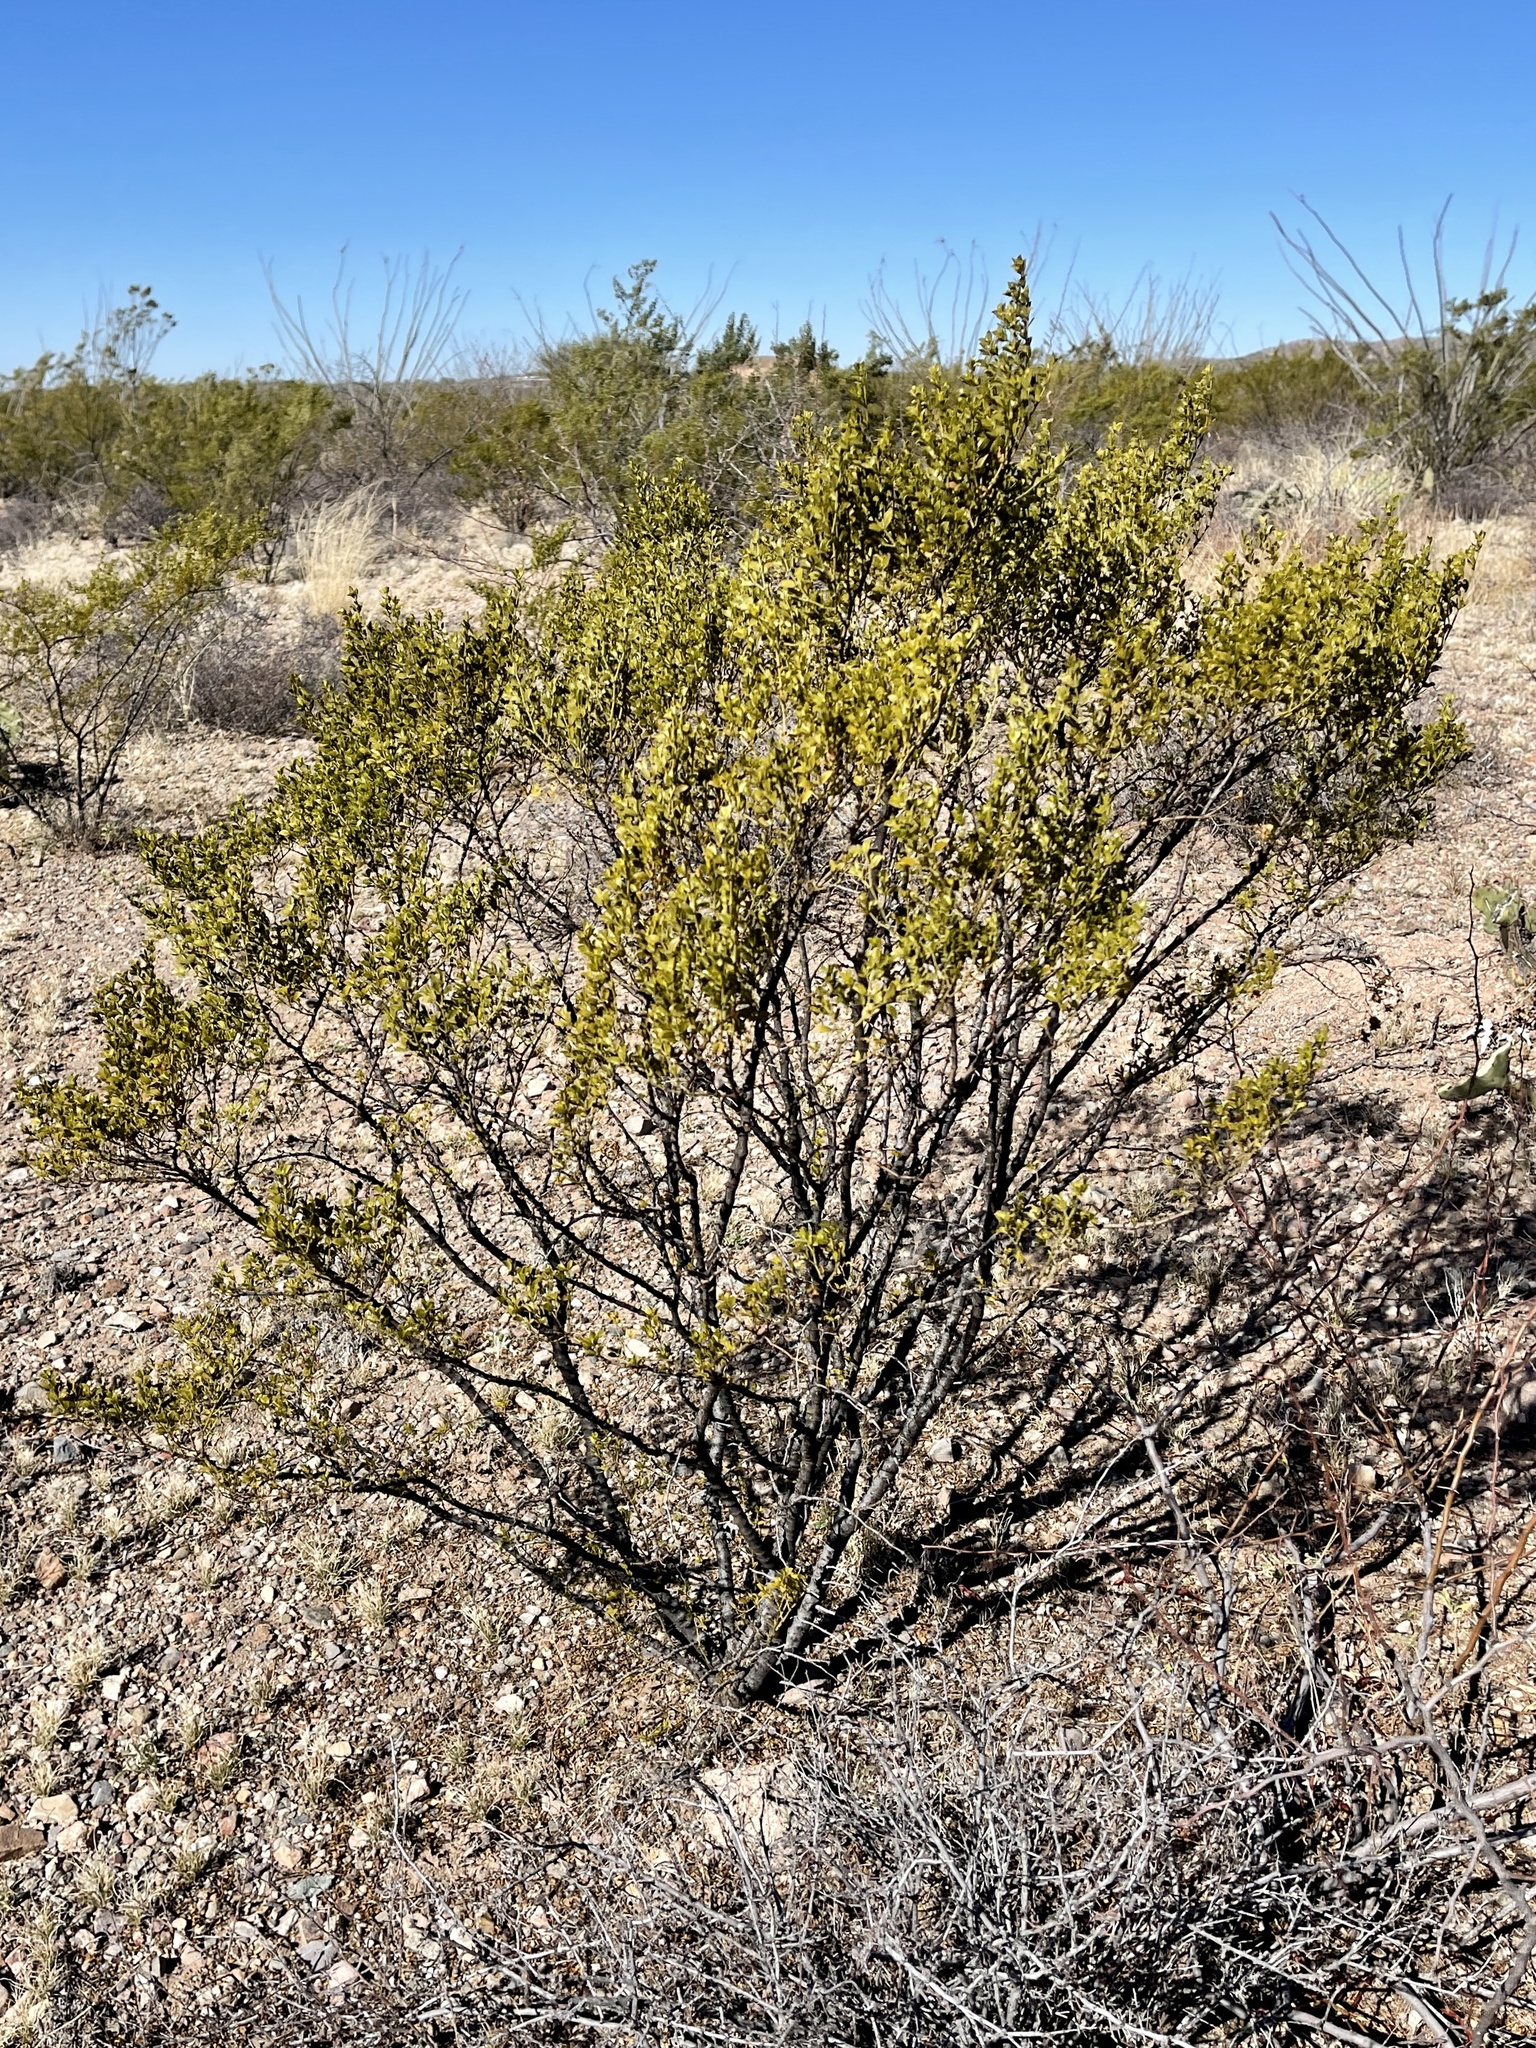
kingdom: Plantae
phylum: Tracheophyta
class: Magnoliopsida
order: Zygophyllales
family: Zygophyllaceae
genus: Larrea
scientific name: Larrea tridentata
